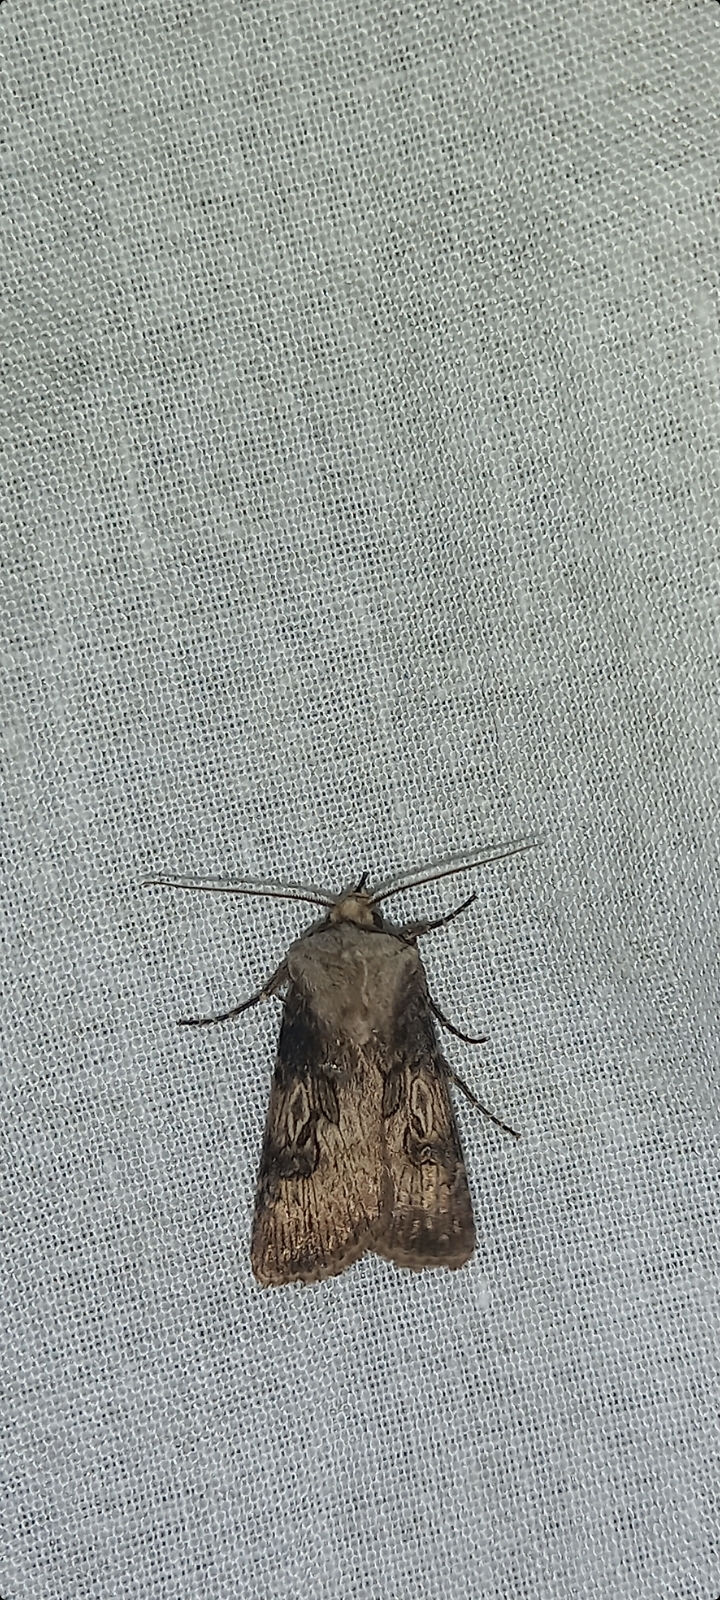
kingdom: Animalia
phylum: Arthropoda
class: Insecta
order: Lepidoptera
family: Noctuidae
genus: Agrotis
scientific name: Agrotis puta
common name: Shuttle-shaped dart
